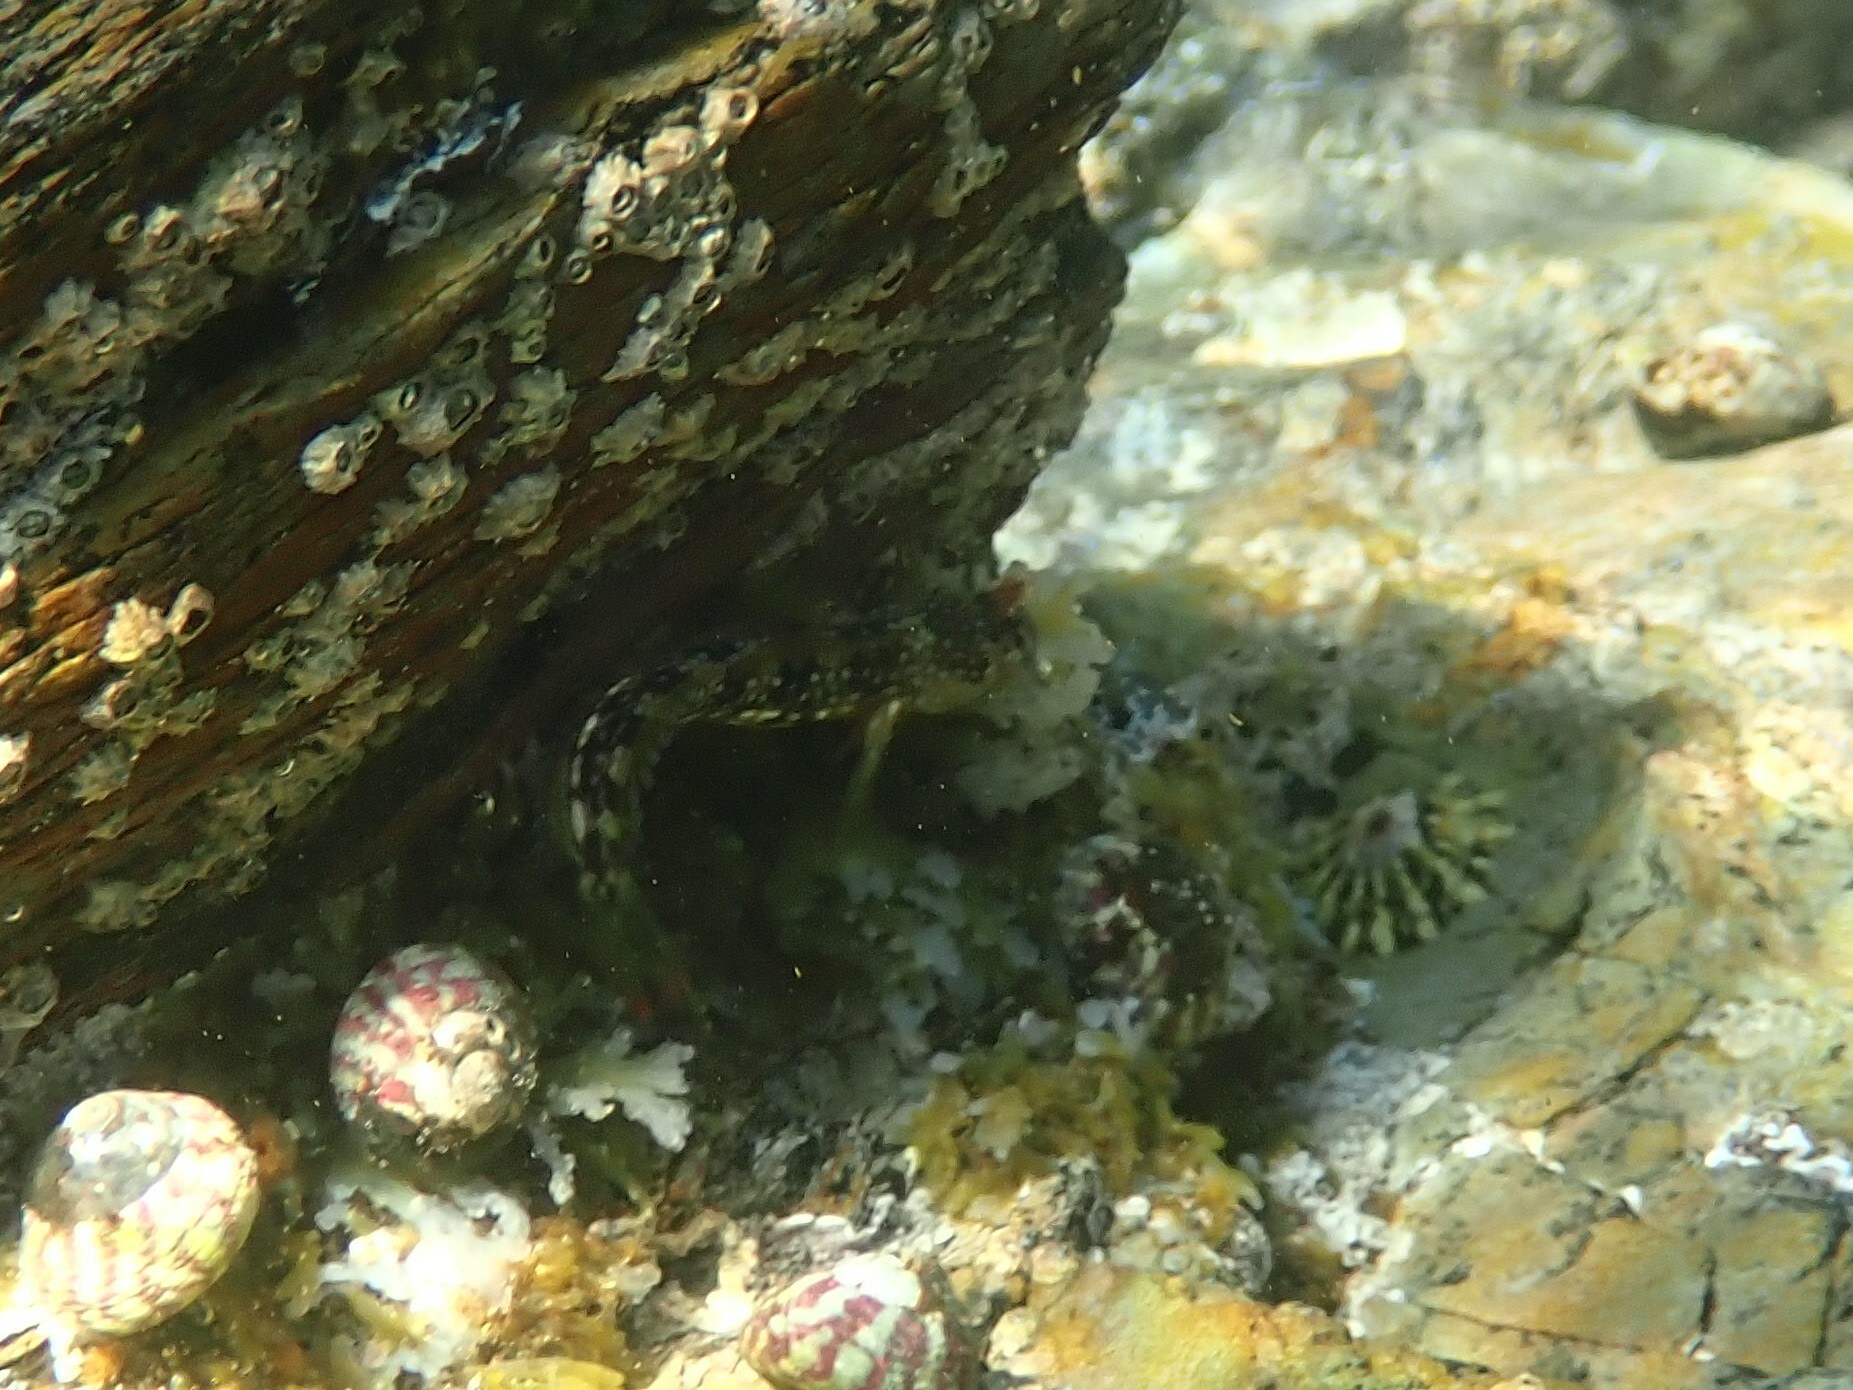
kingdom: Animalia
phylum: Chordata
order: Perciformes
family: Blenniidae
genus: Coryphoblennius
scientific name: Coryphoblennius galerita
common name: Montagu's blenny
